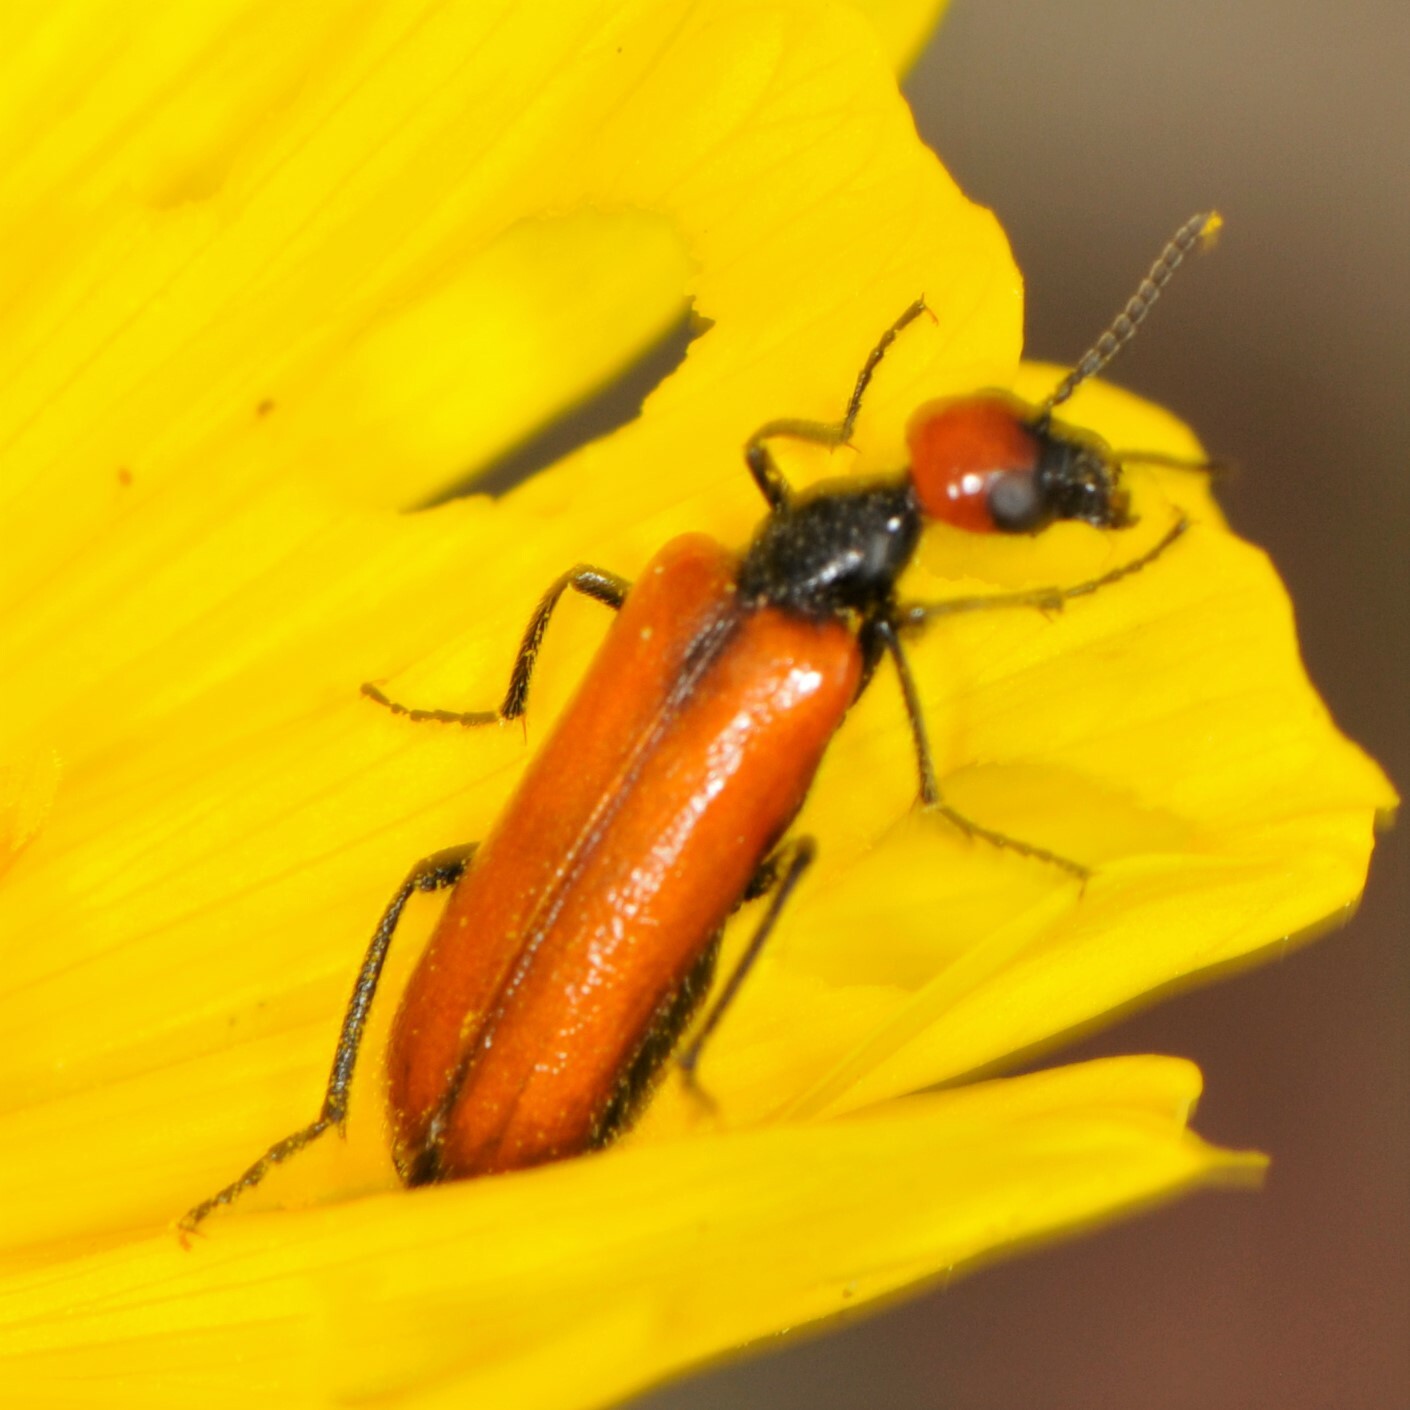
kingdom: Animalia
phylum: Arthropoda
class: Insecta
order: Coleoptera
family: Meloidae
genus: Eupompha
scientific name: Eupompha schwarzi
